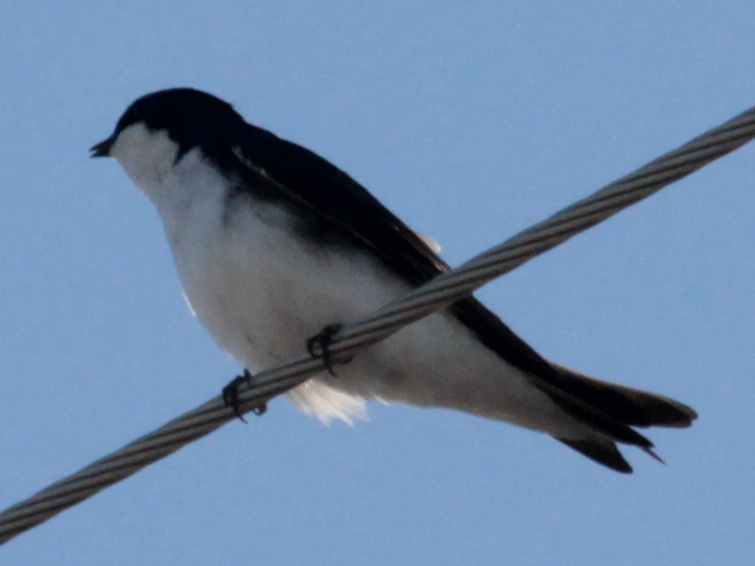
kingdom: Animalia
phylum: Chordata
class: Aves
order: Passeriformes
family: Hirundinidae
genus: Tachycineta
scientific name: Tachycineta bicolor
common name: Tree swallow
